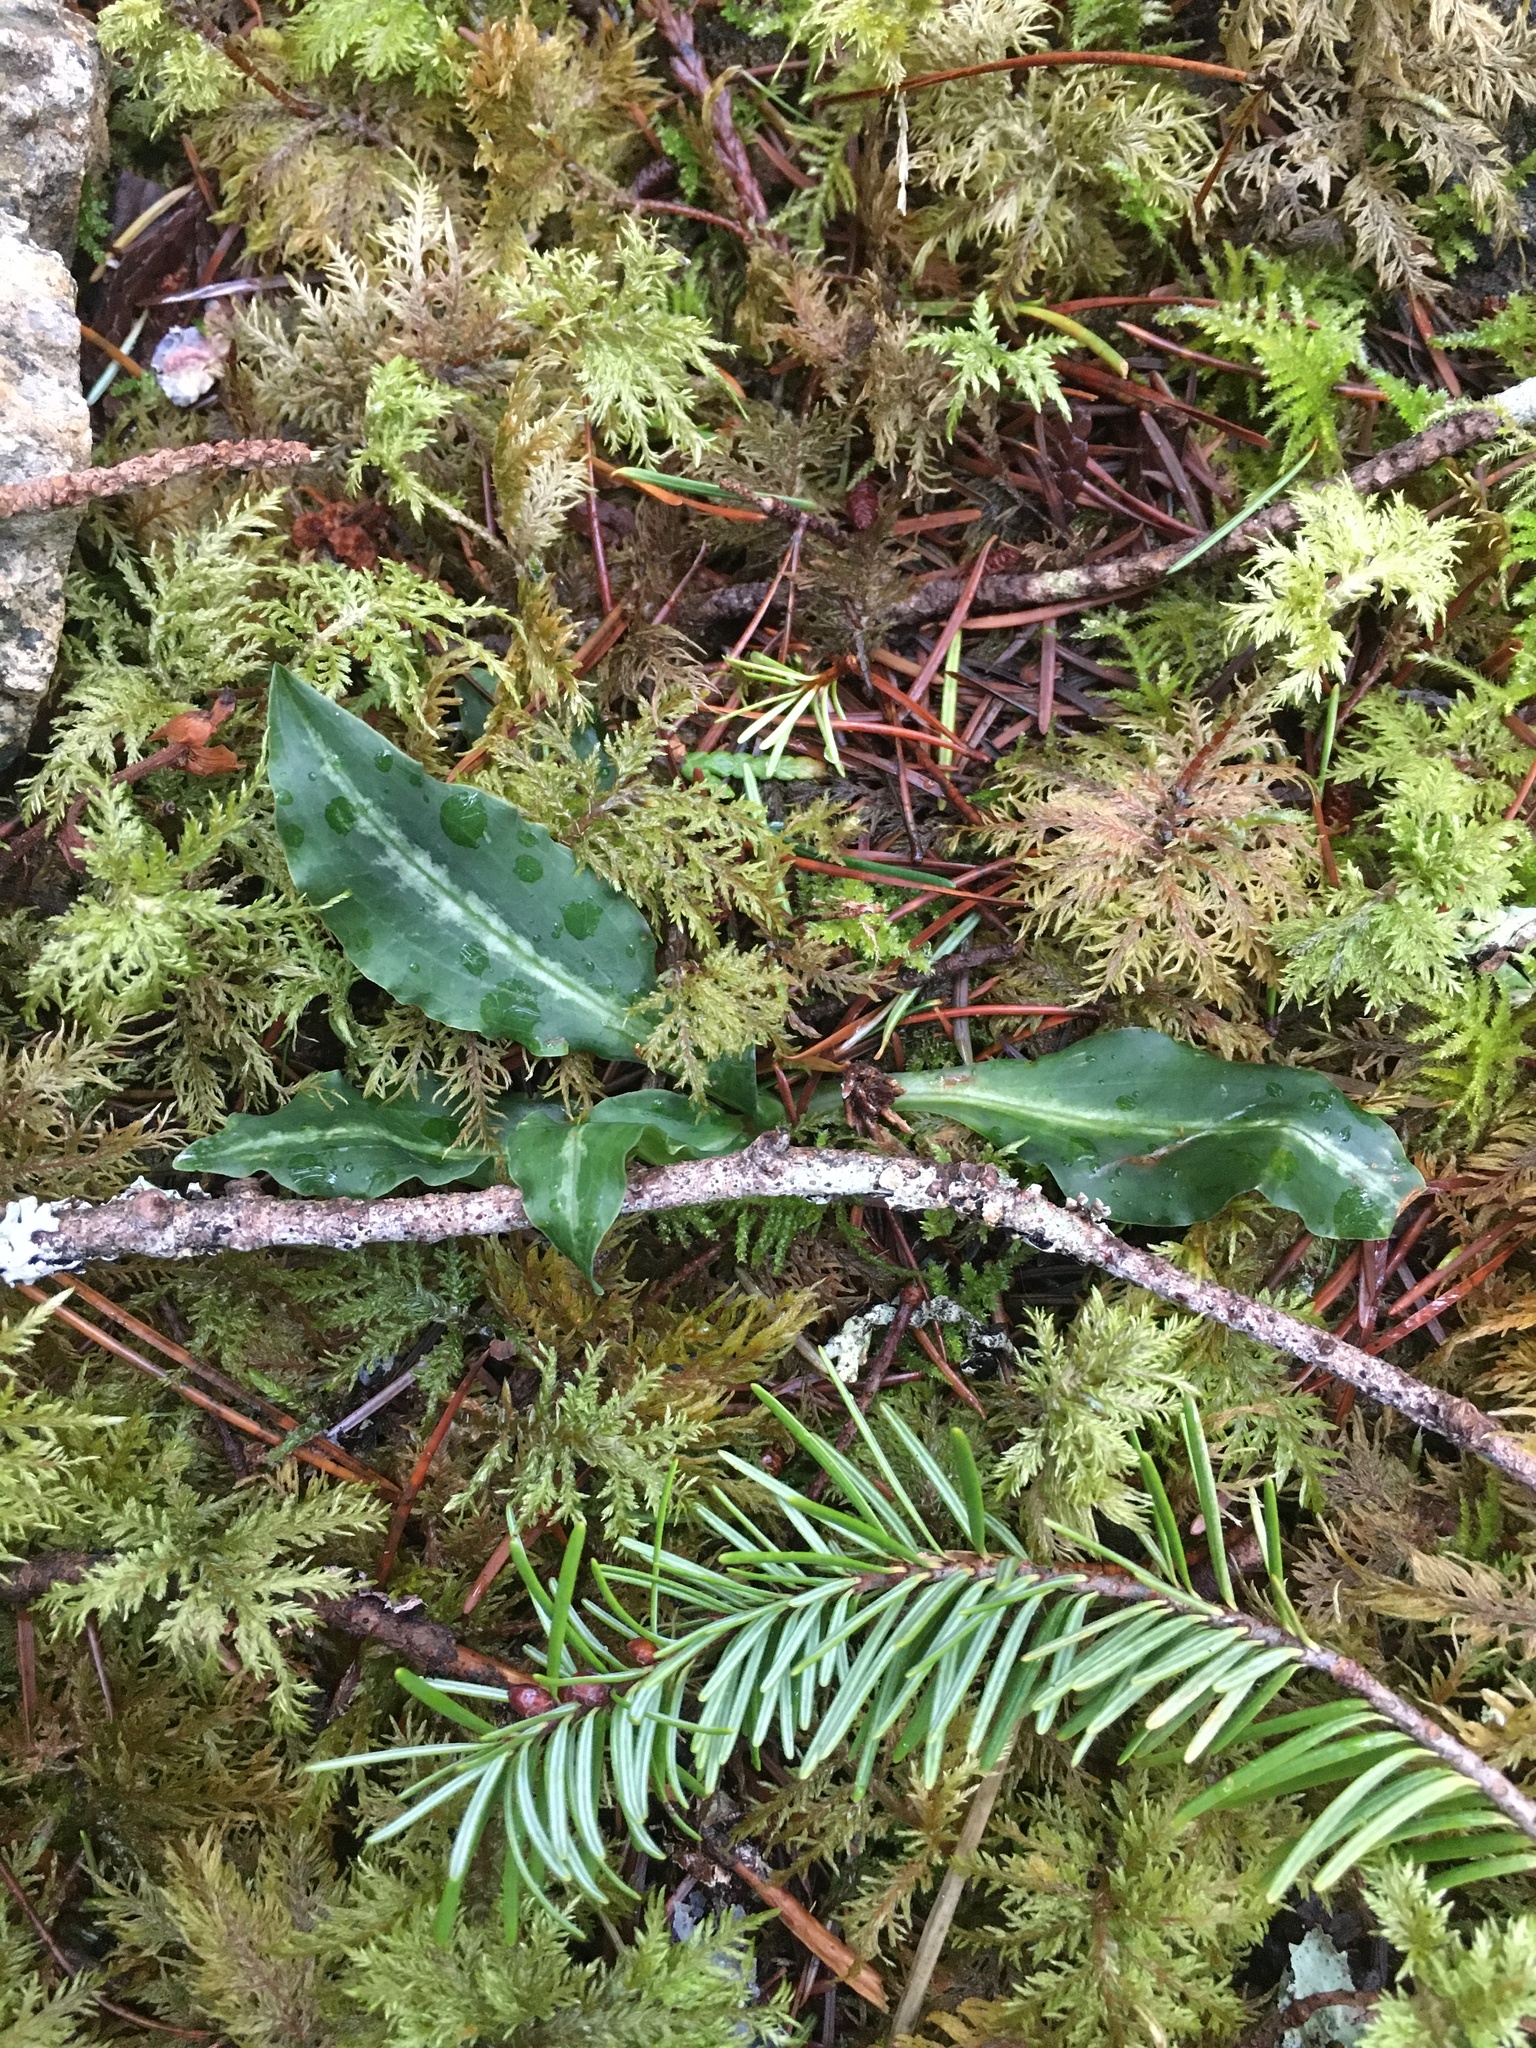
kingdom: Plantae
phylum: Tracheophyta
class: Liliopsida
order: Asparagales
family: Orchidaceae
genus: Goodyera
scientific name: Goodyera oblongifolia
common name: Giant rattlesnake-plantain
